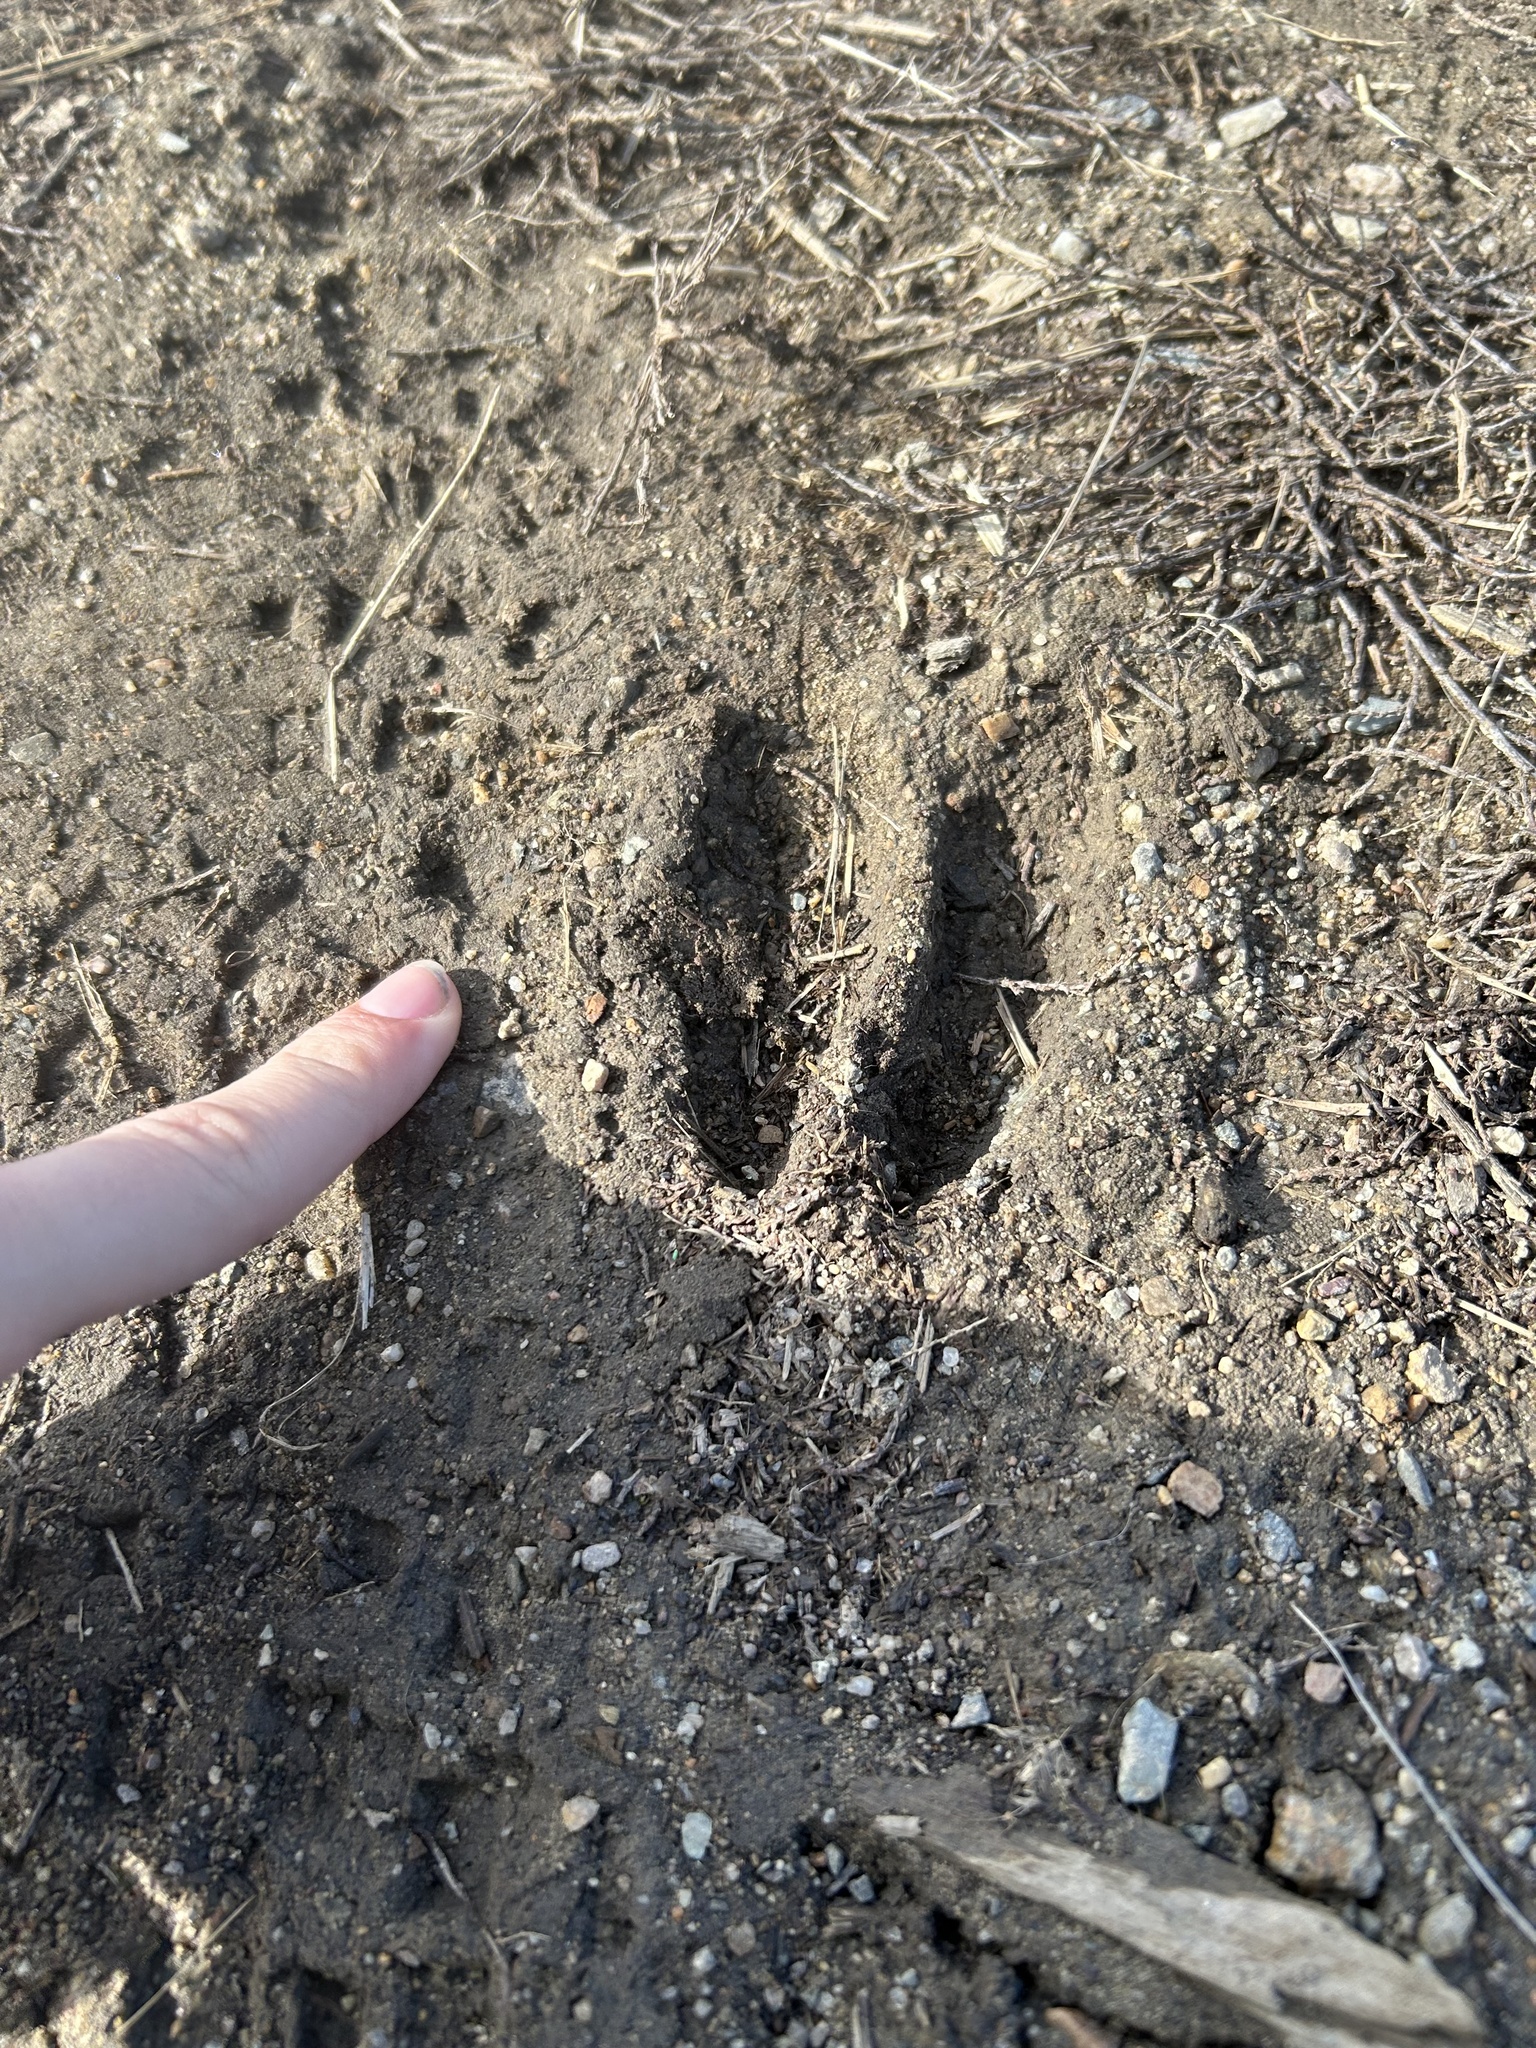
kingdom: Animalia
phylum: Chordata
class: Mammalia
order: Artiodactyla
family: Cervidae
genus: Odocoileus
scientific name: Odocoileus virginianus
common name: White-tailed deer
